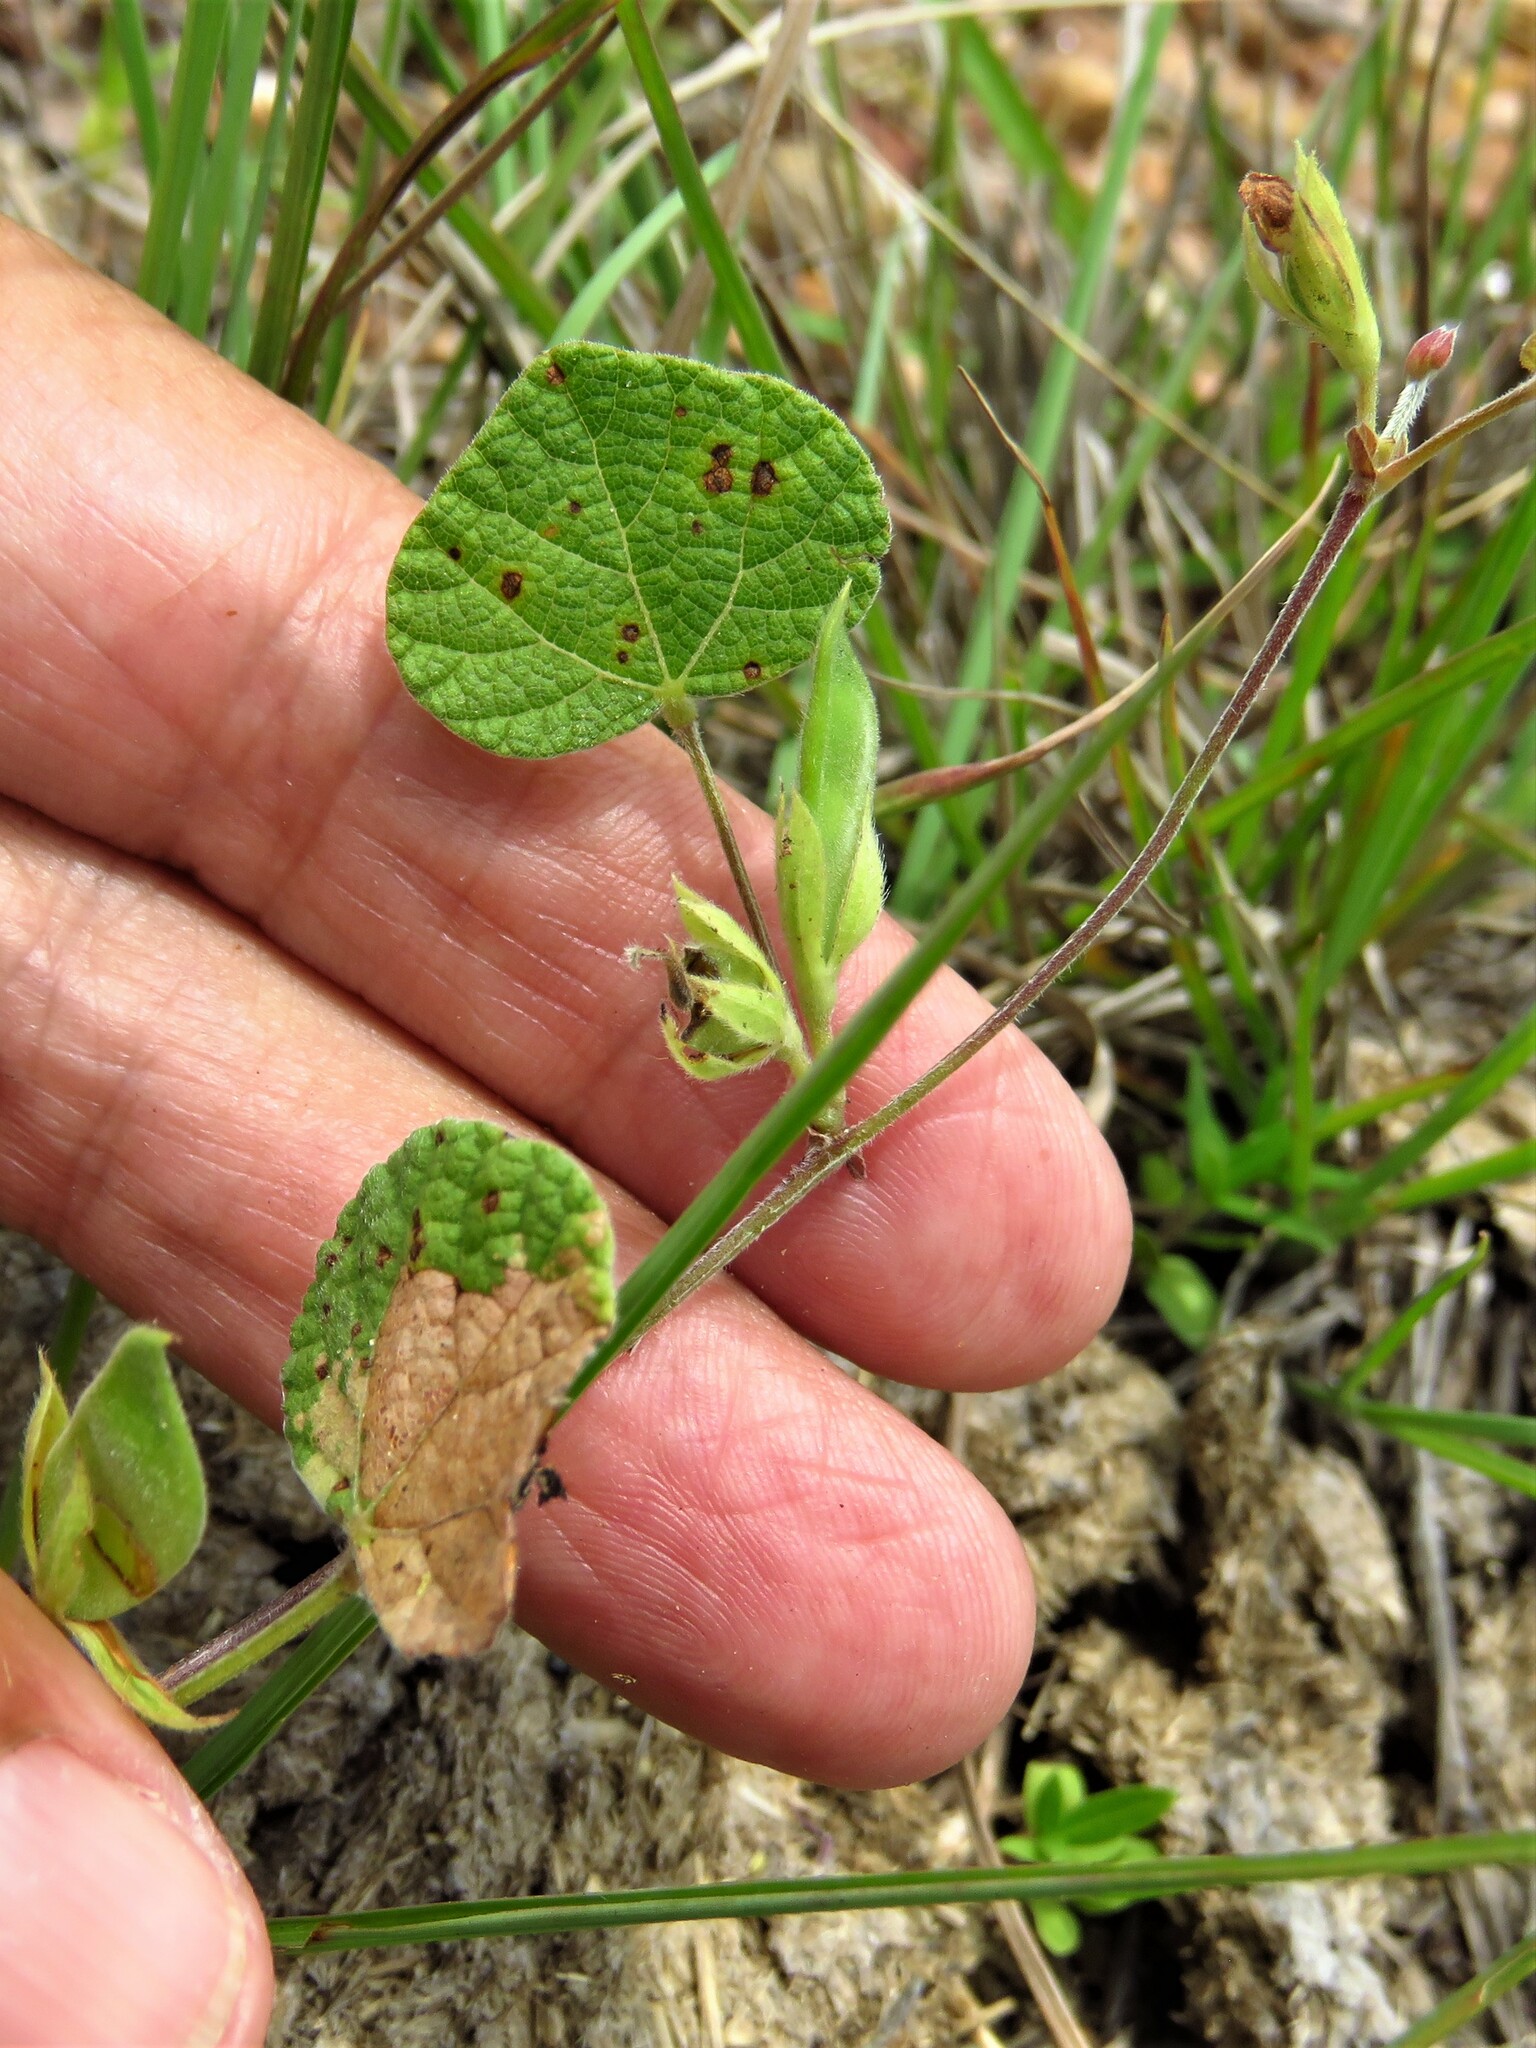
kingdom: Plantae
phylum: Tracheophyta
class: Magnoliopsida
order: Fabales
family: Fabaceae
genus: Rhynchosia
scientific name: Rhynchosia americana
